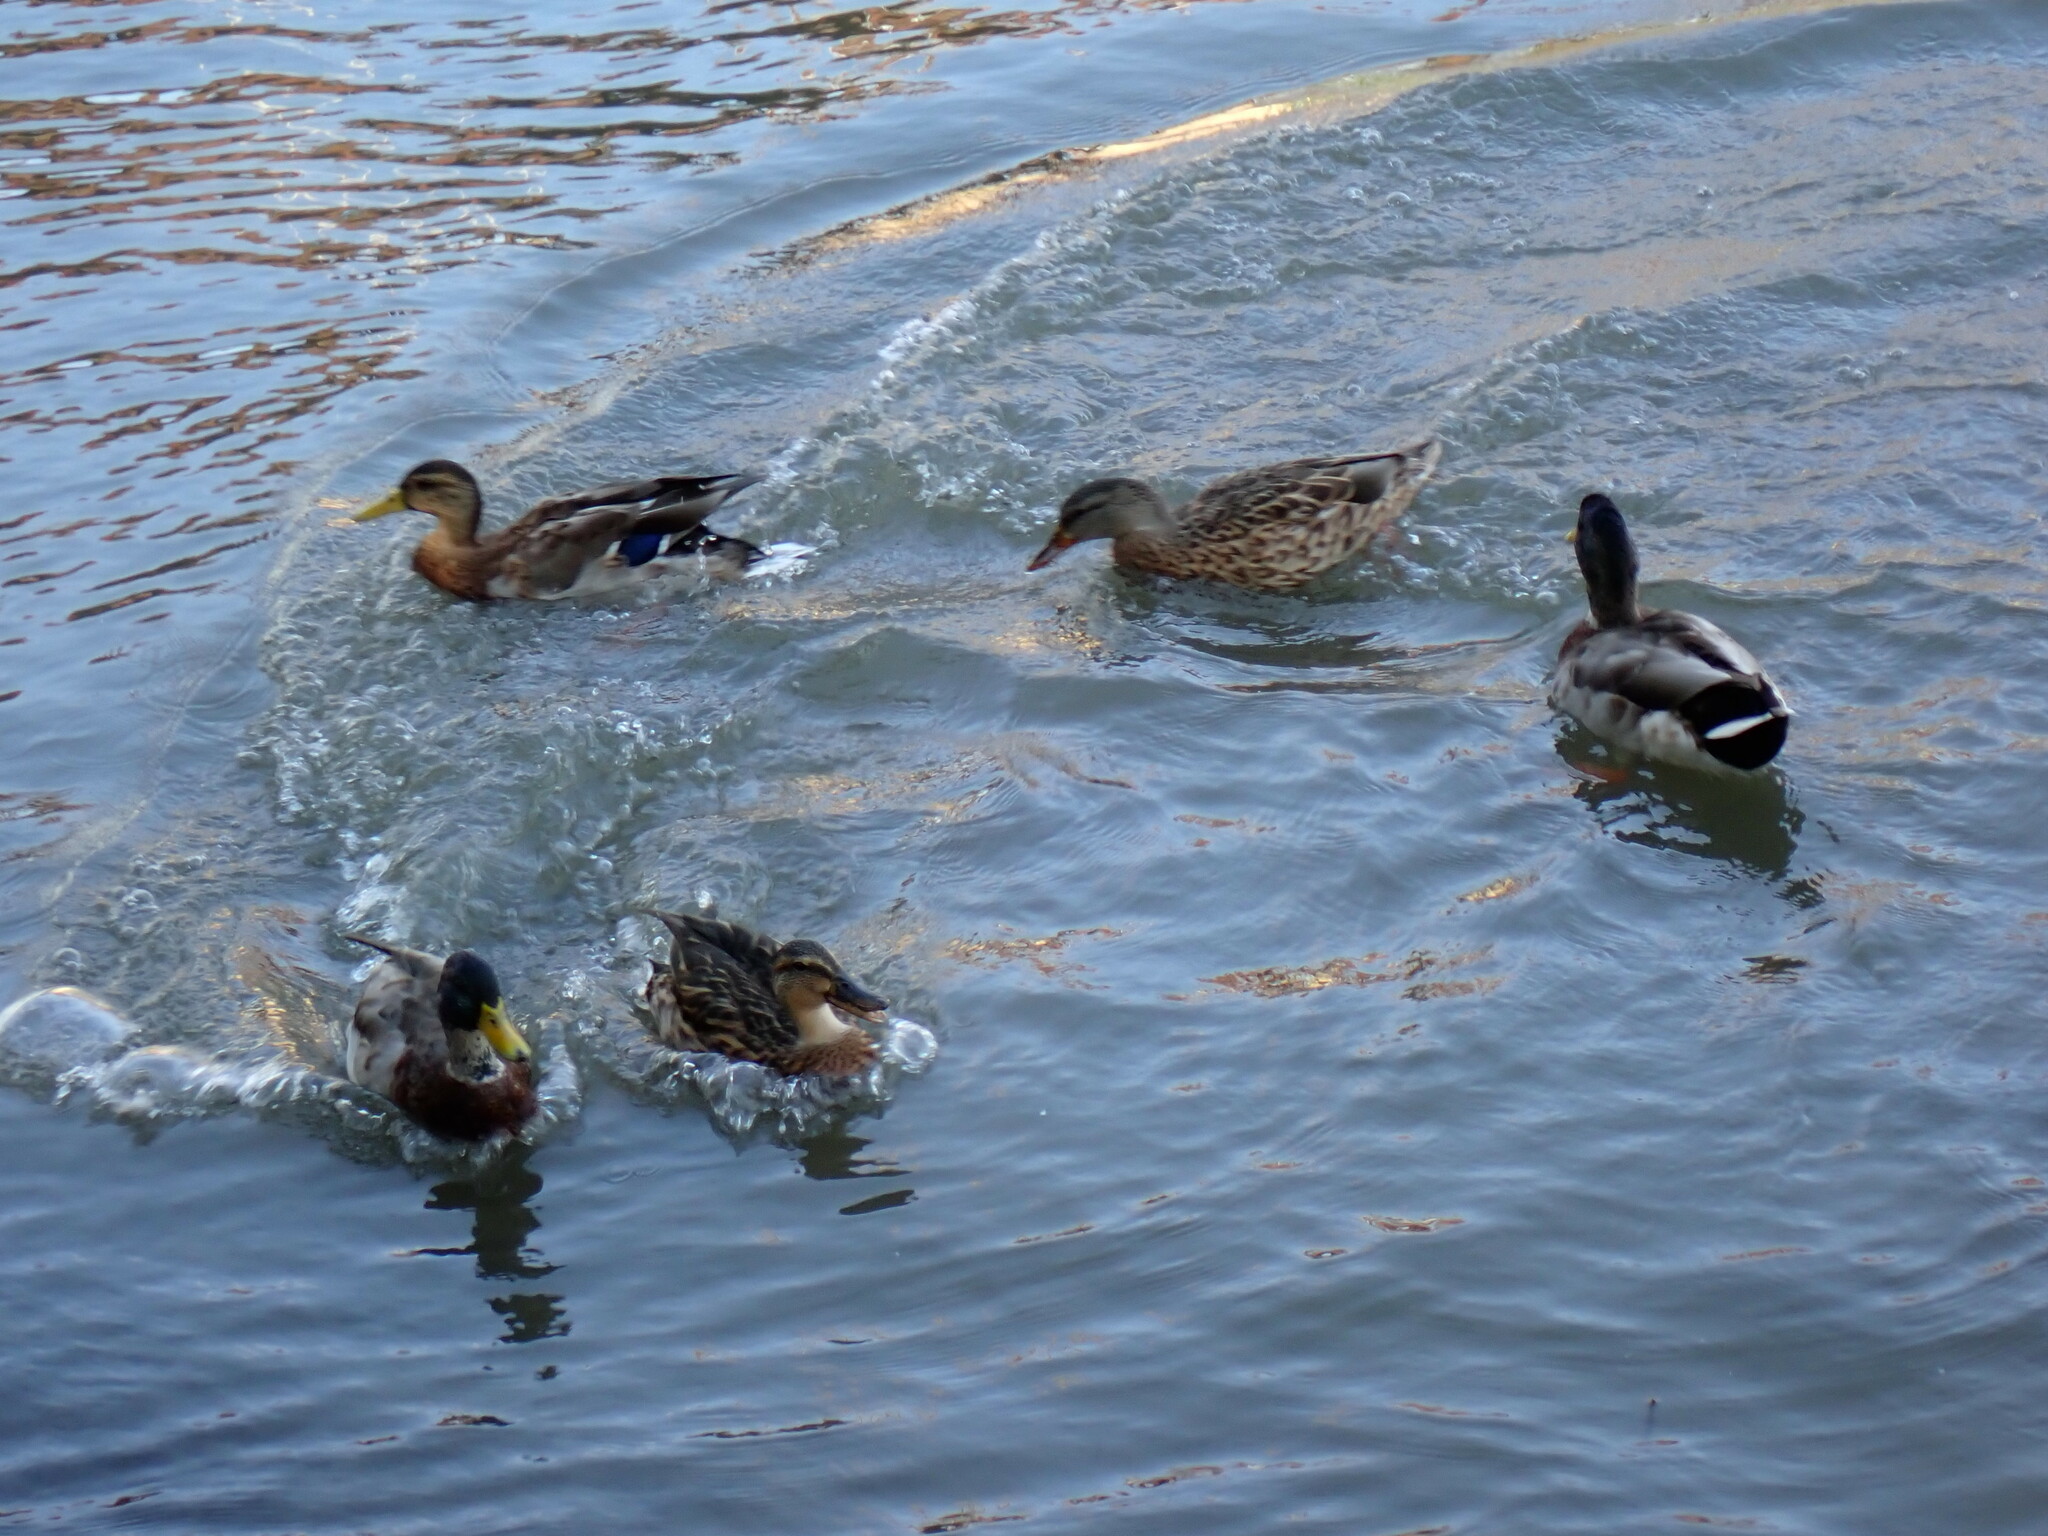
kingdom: Animalia
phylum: Chordata
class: Aves
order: Anseriformes
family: Anatidae
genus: Anas
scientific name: Anas platyrhynchos
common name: Mallard
